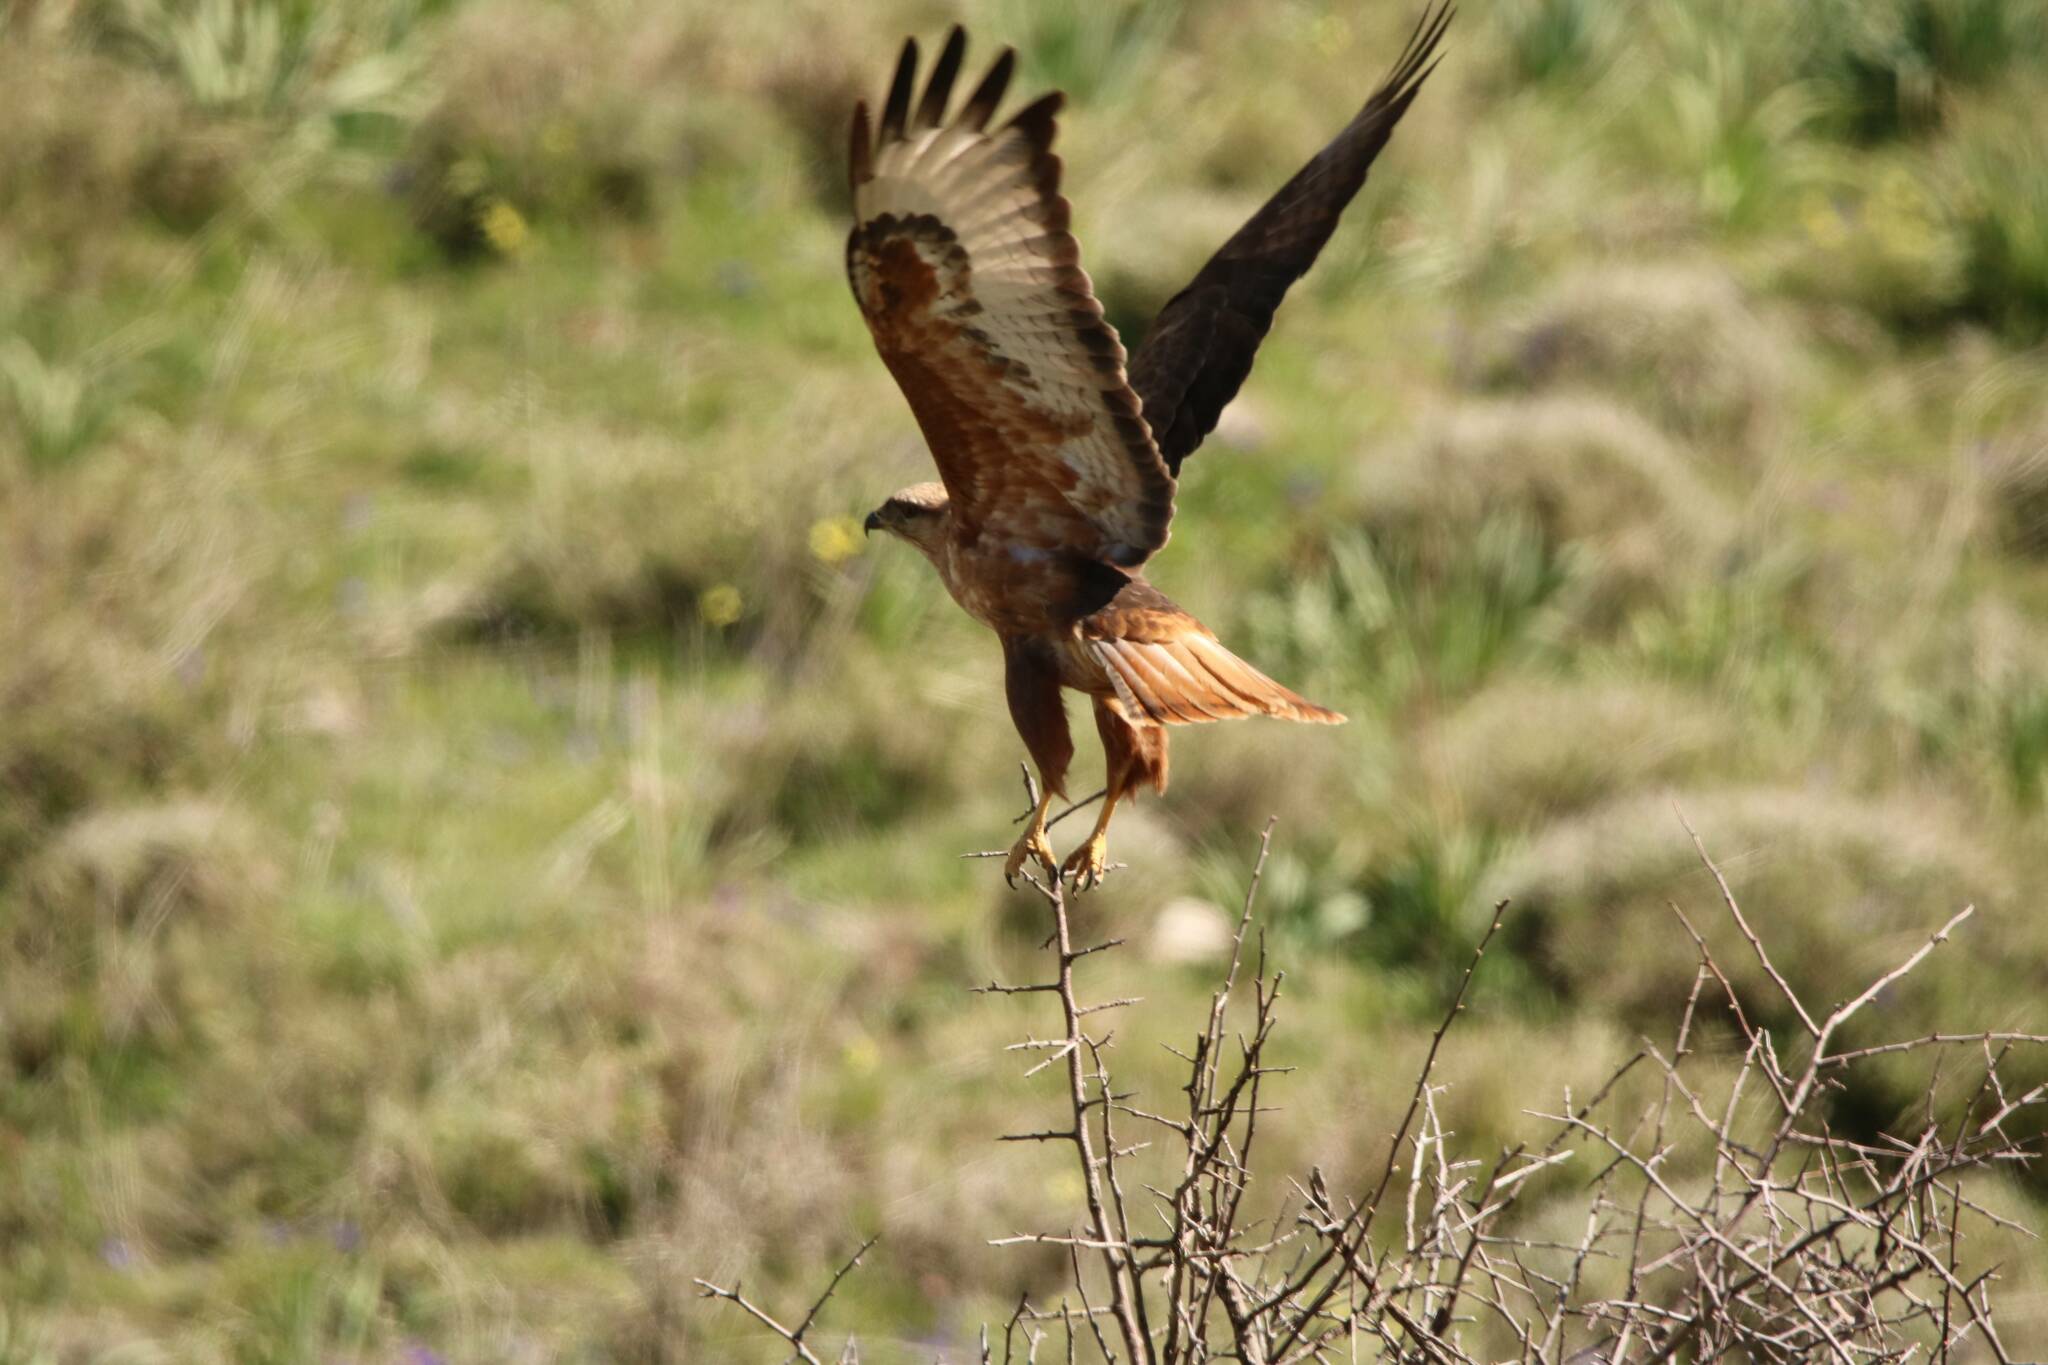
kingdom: Animalia
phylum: Chordata
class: Aves
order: Accipitriformes
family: Accipitridae
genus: Buteo
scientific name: Buteo rufinus
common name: Long-legged buzzard
